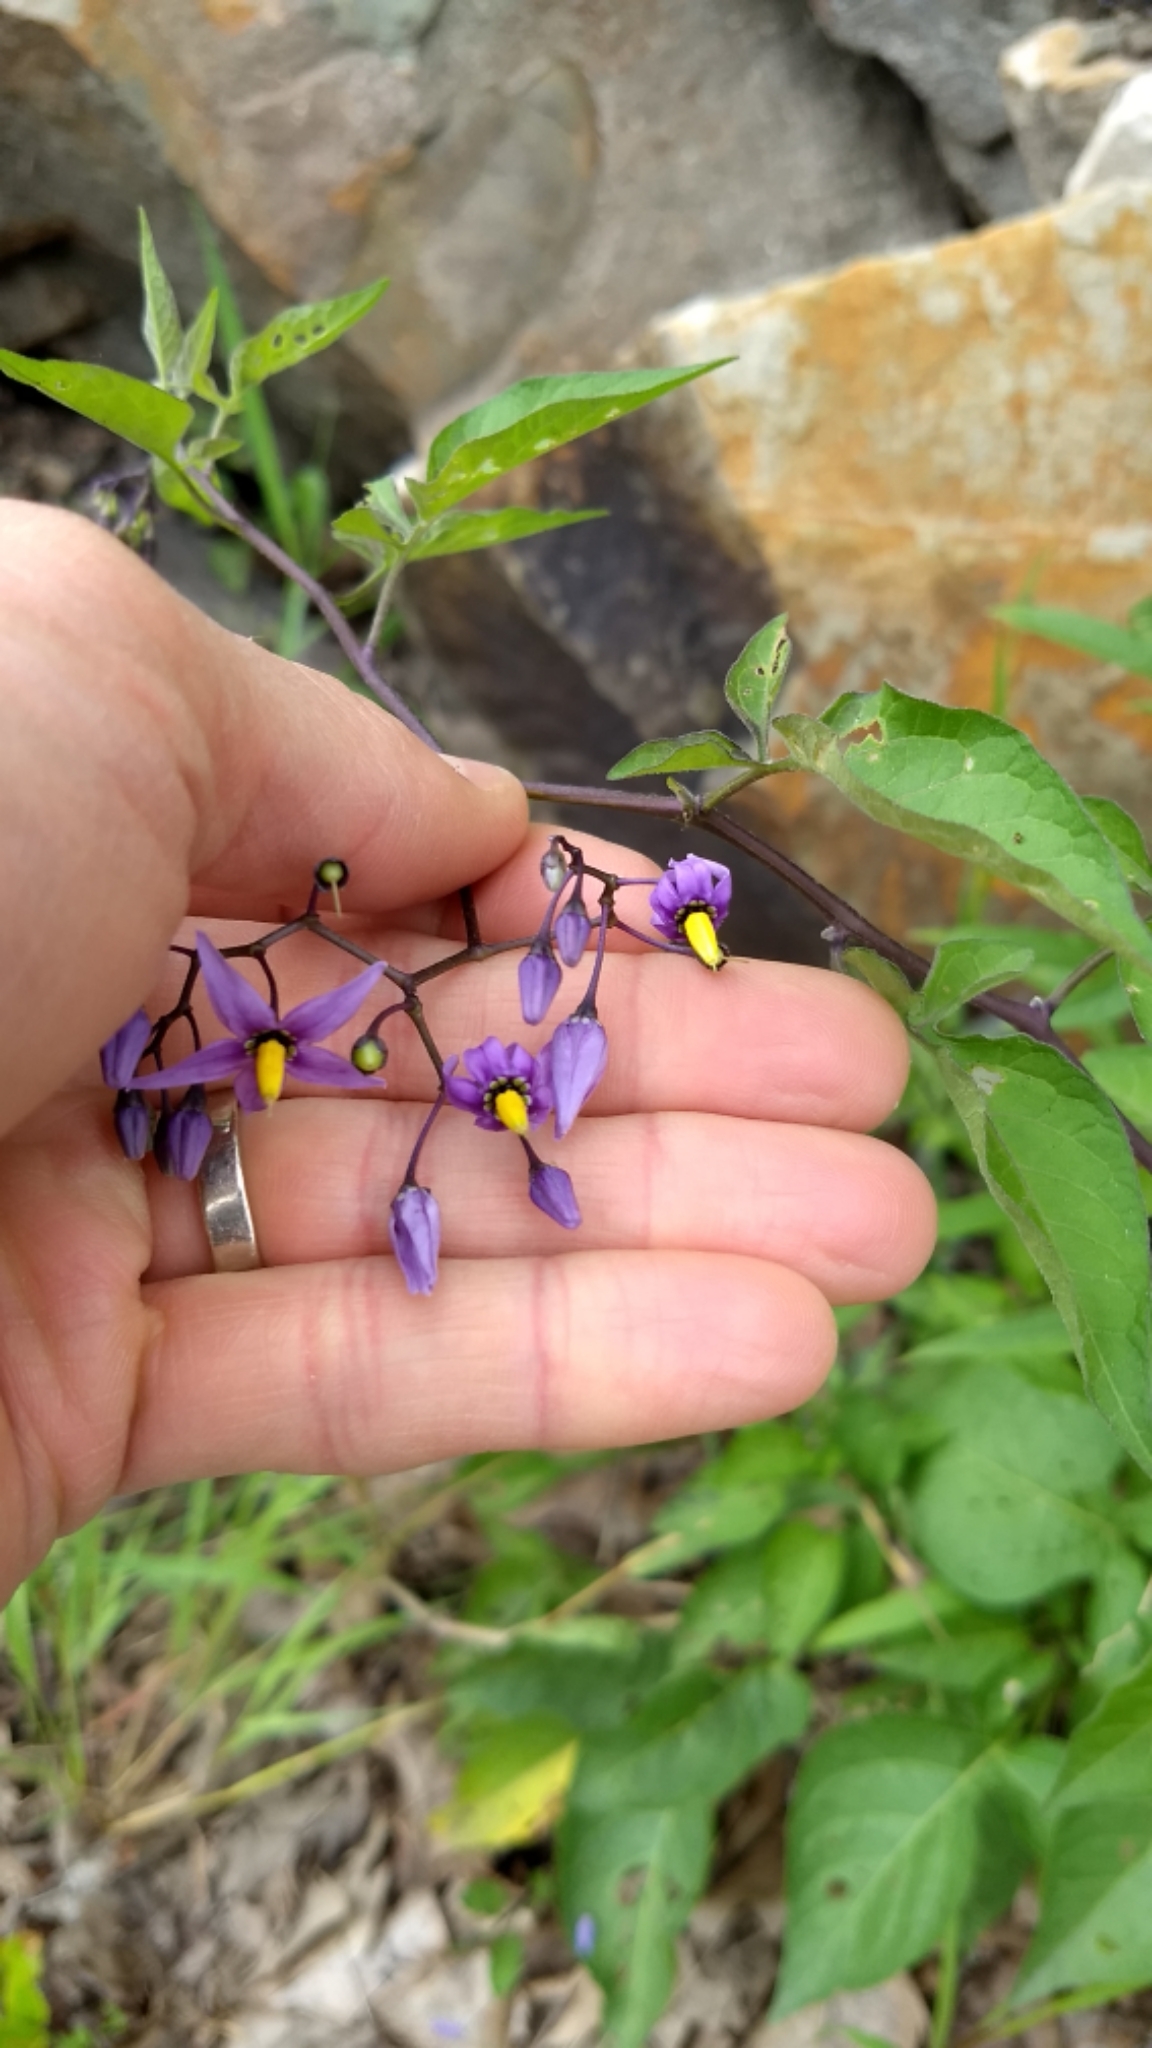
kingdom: Plantae
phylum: Tracheophyta
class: Magnoliopsida
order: Solanales
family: Solanaceae
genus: Solanum
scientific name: Solanum dulcamara
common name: Climbing nightshade
